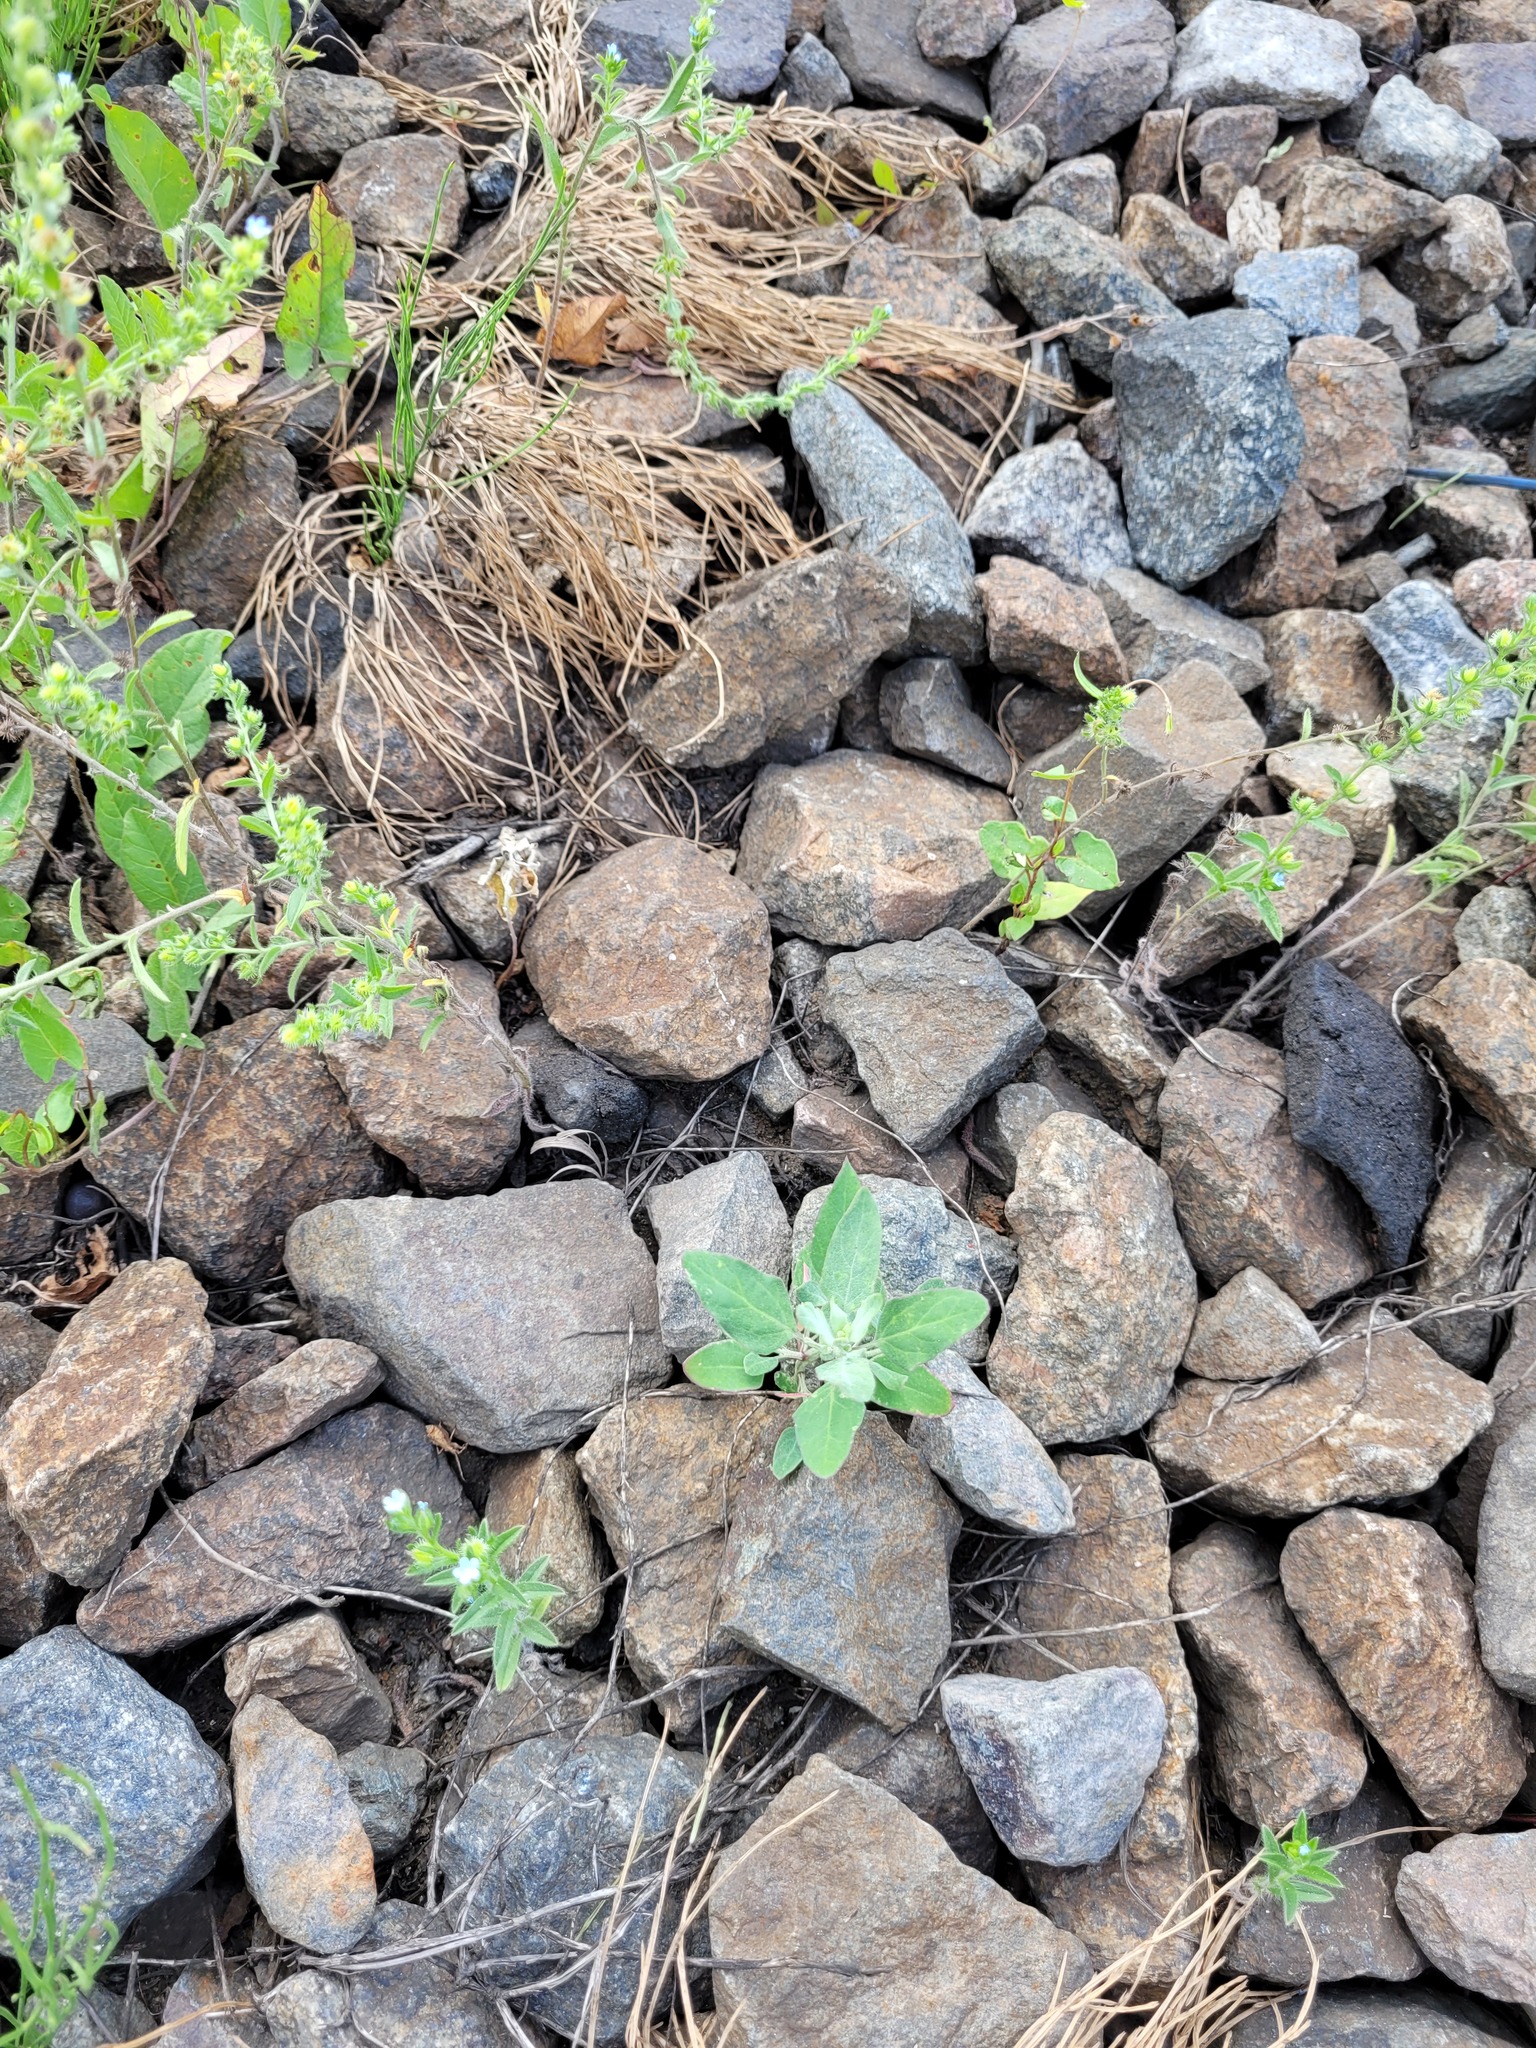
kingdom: Plantae
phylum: Tracheophyta
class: Magnoliopsida
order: Caryophyllales
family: Amaranthaceae
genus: Chenopodium
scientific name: Chenopodium album
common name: Fat-hen
